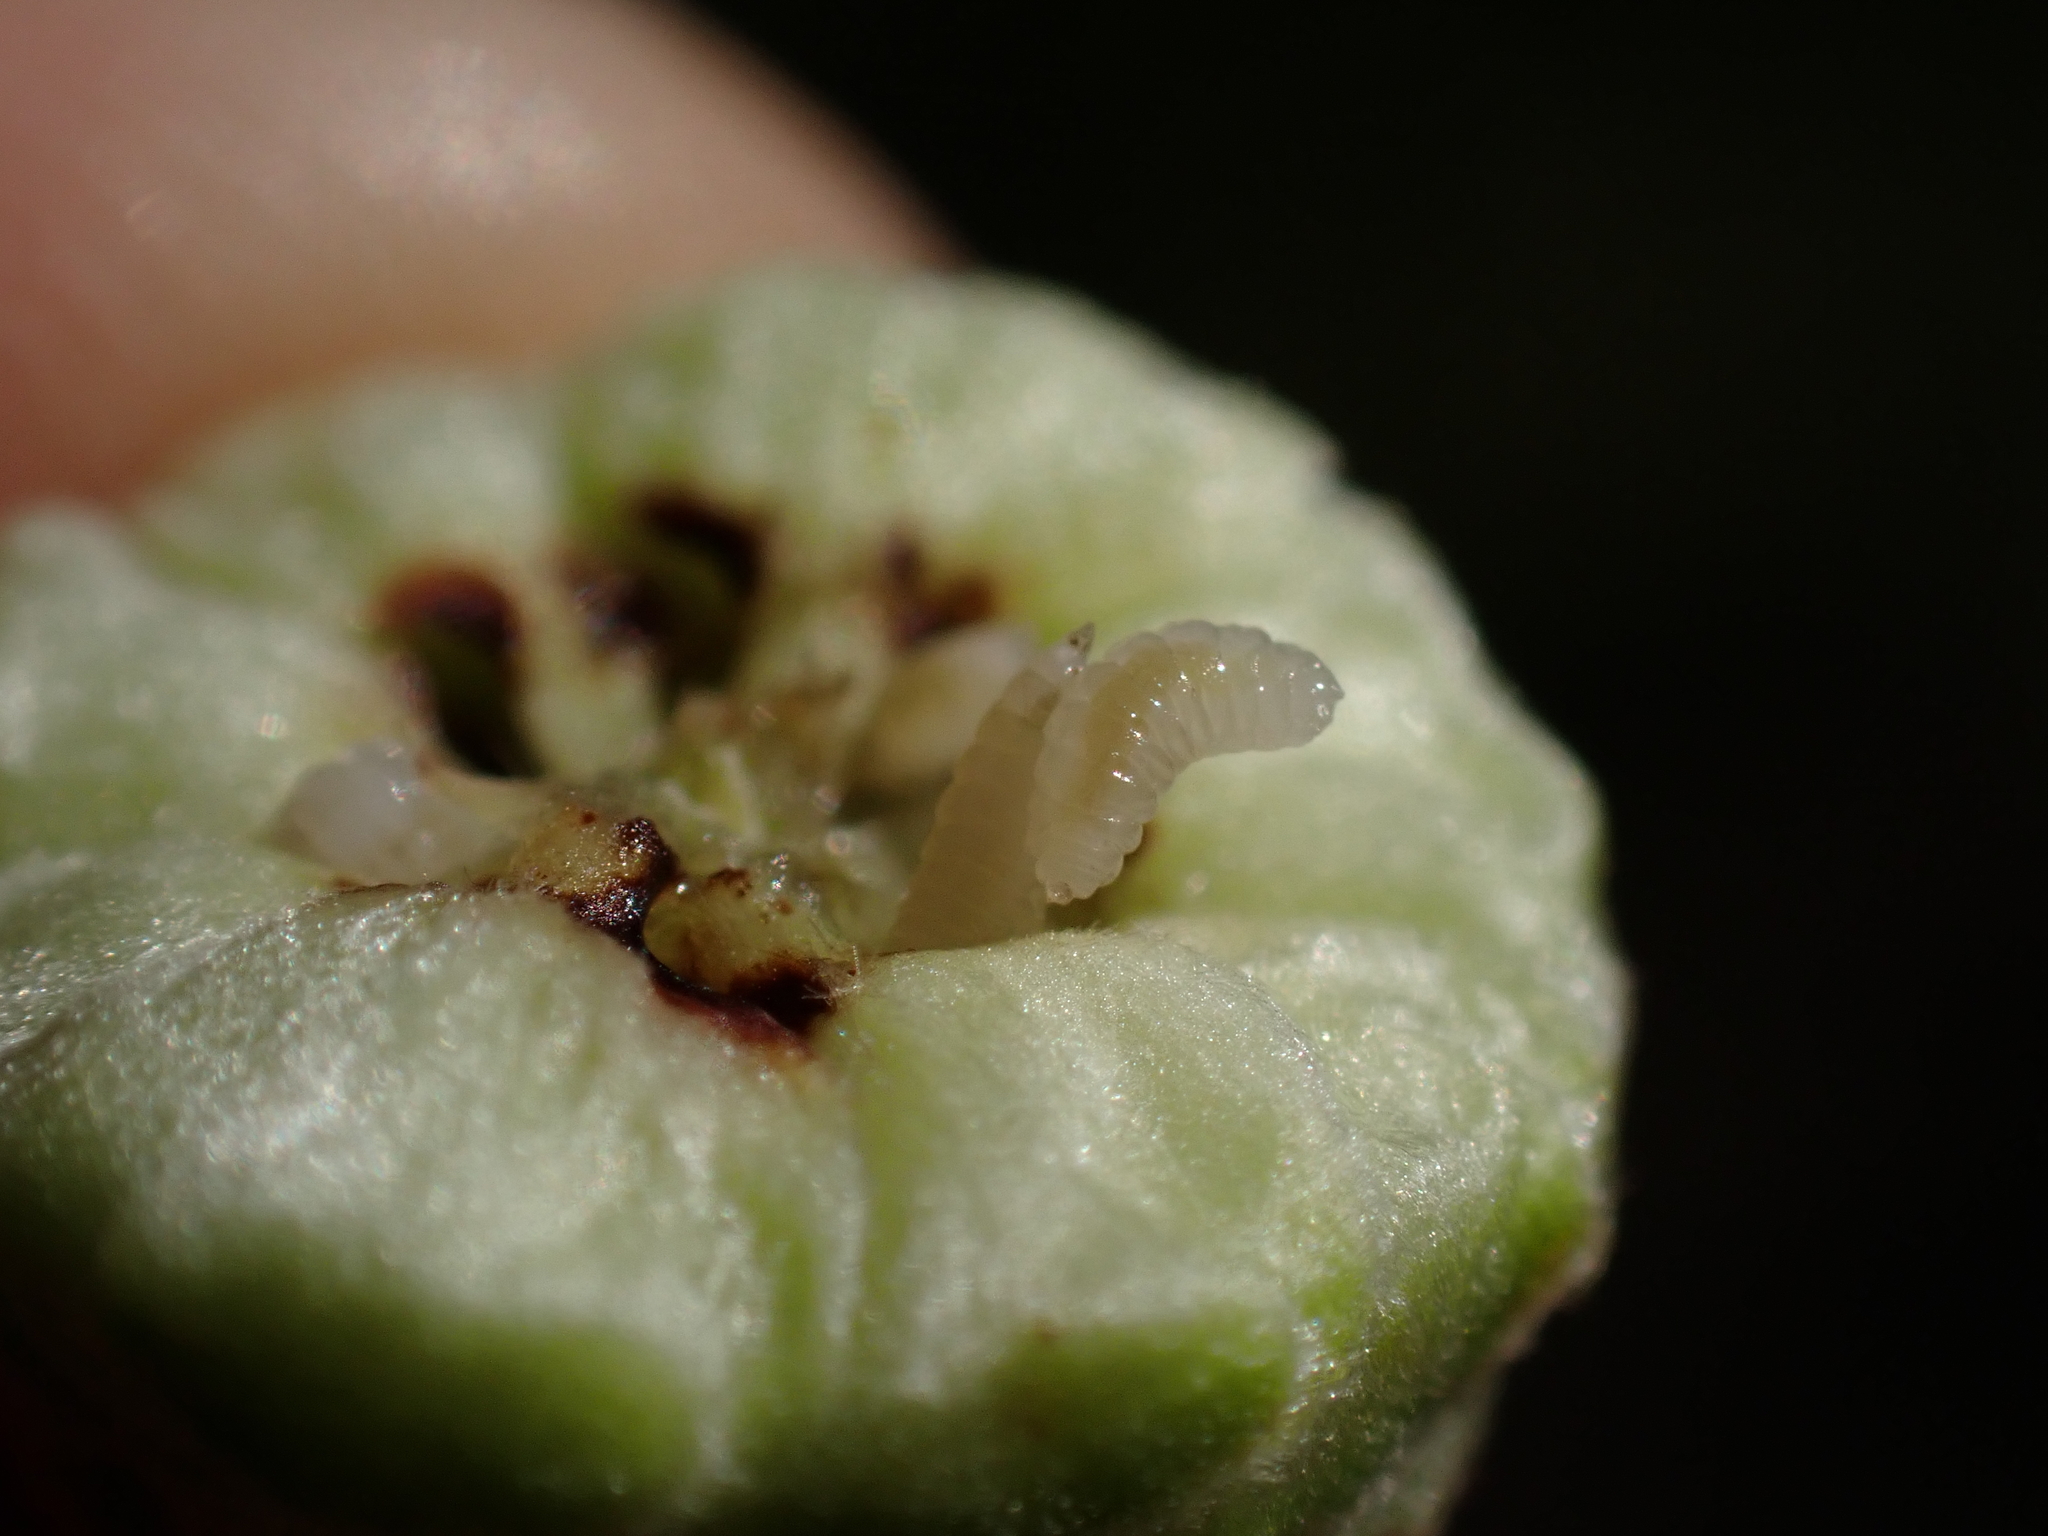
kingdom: Animalia
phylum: Arthropoda
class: Insecta
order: Diptera
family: Cecidomyiidae
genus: Contarinia
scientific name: Contarinia coryli
